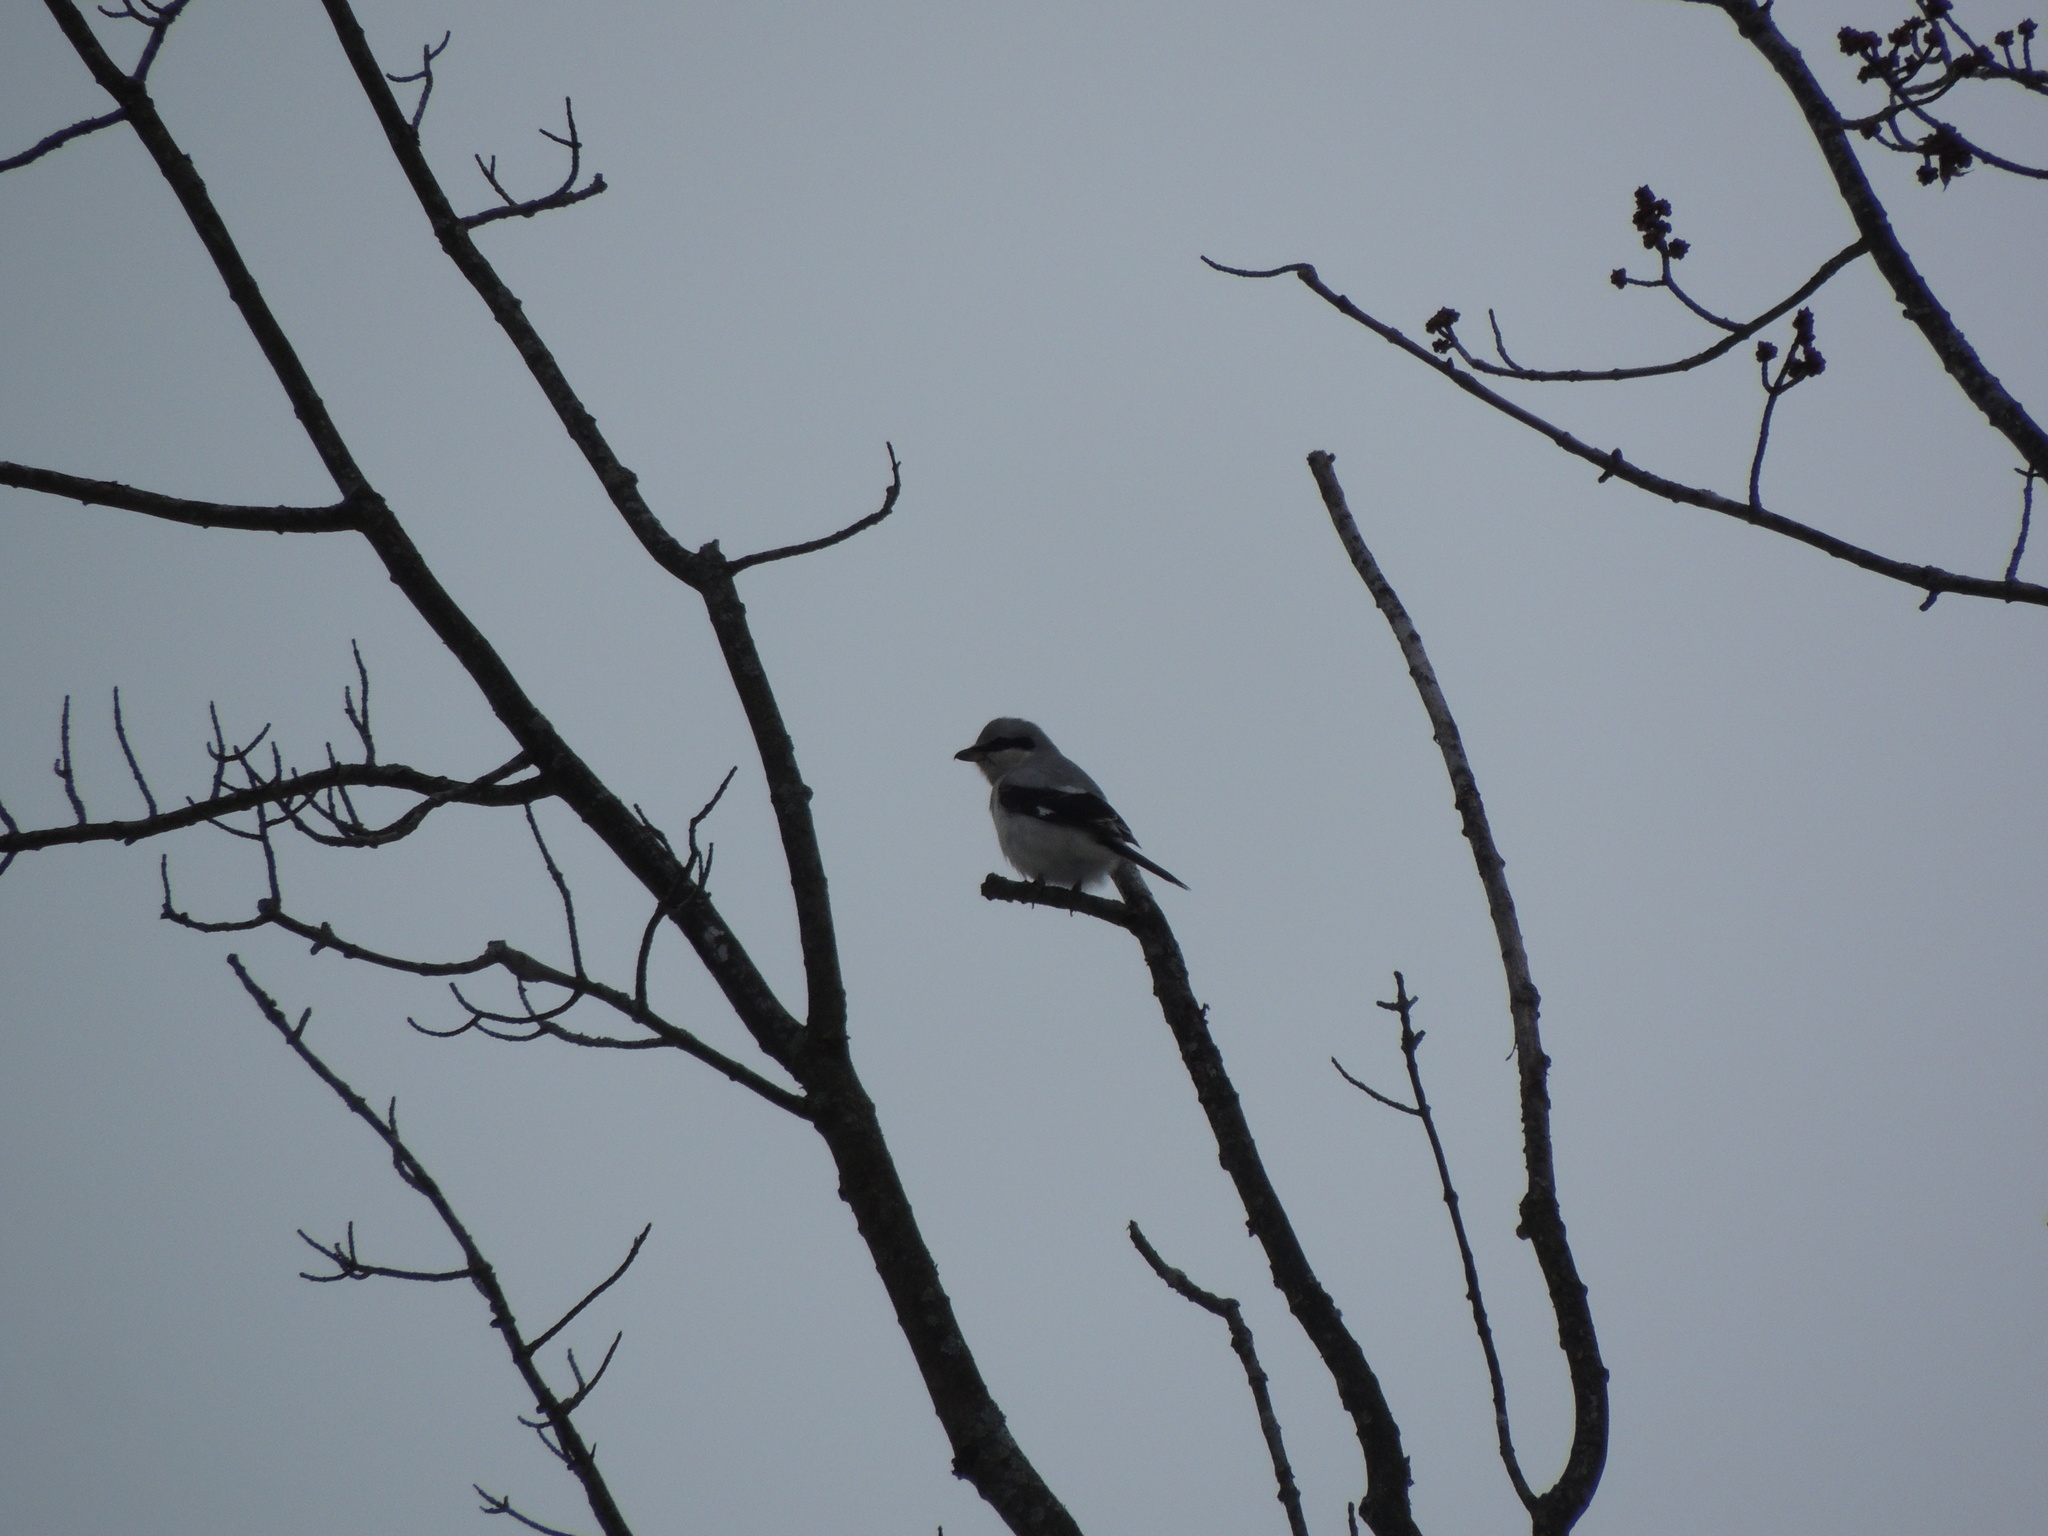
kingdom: Animalia
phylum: Chordata
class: Aves
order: Passeriformes
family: Laniidae
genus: Lanius
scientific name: Lanius borealis
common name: Northern shrike
